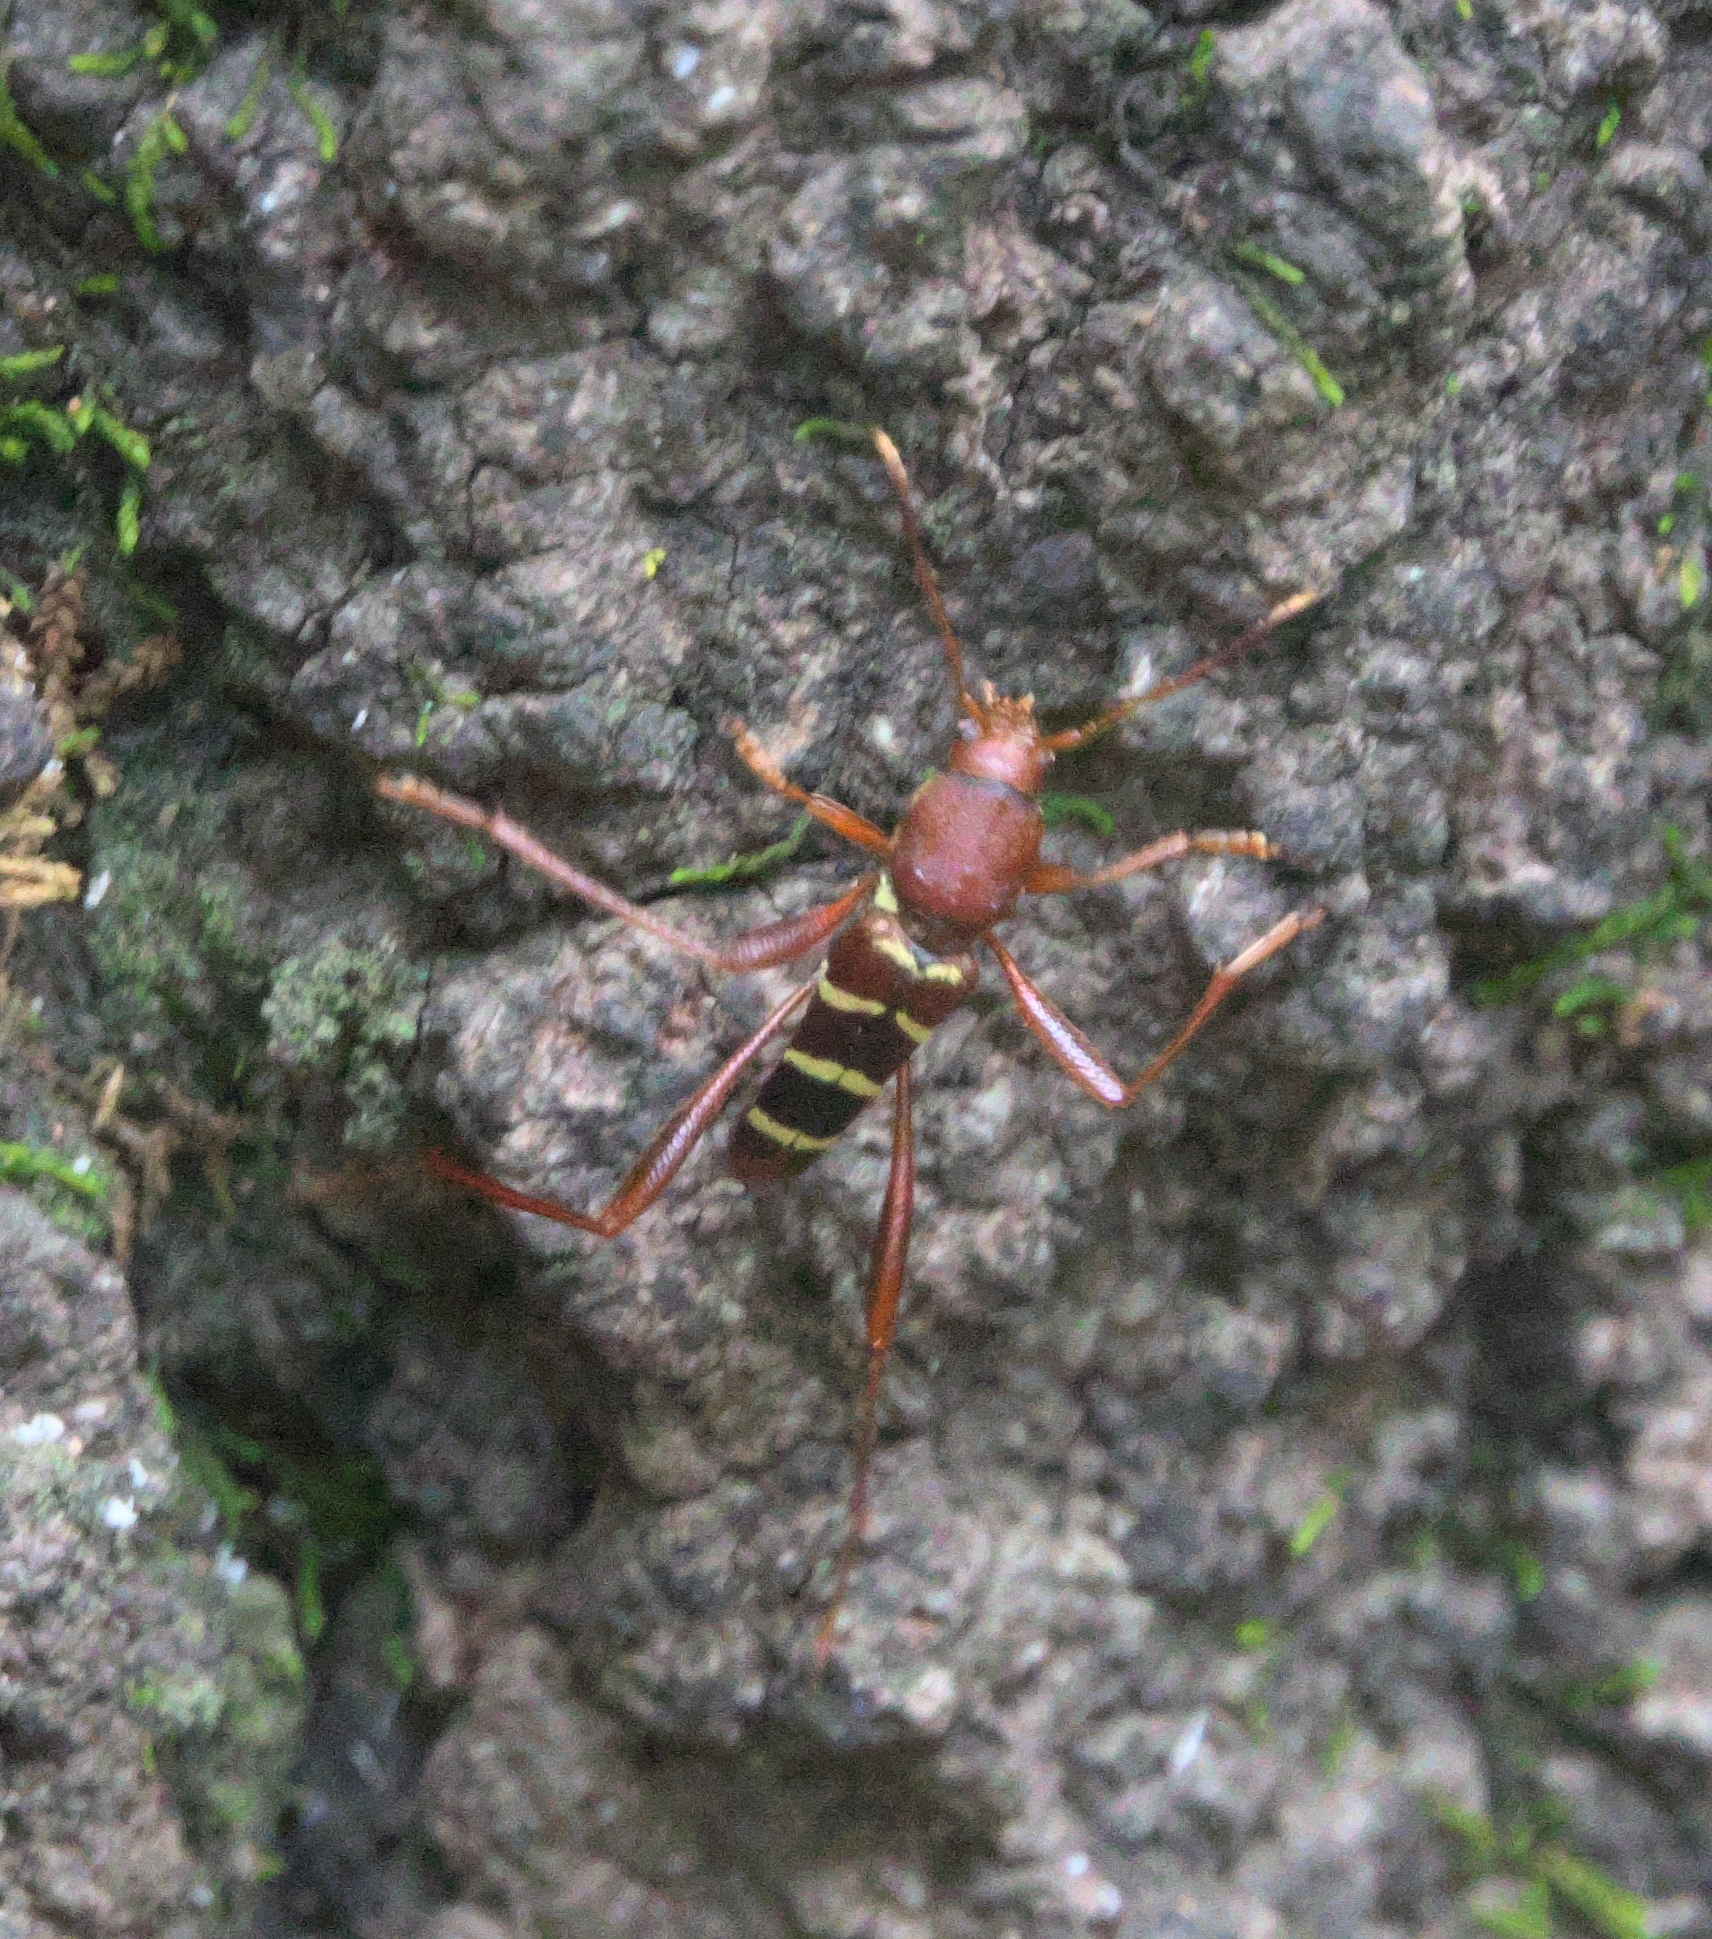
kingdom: Animalia
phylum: Arthropoda
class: Insecta
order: Coleoptera
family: Cerambycidae
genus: Neoclytus
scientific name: Neoclytus acuminatus
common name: Read-headed ash borer
